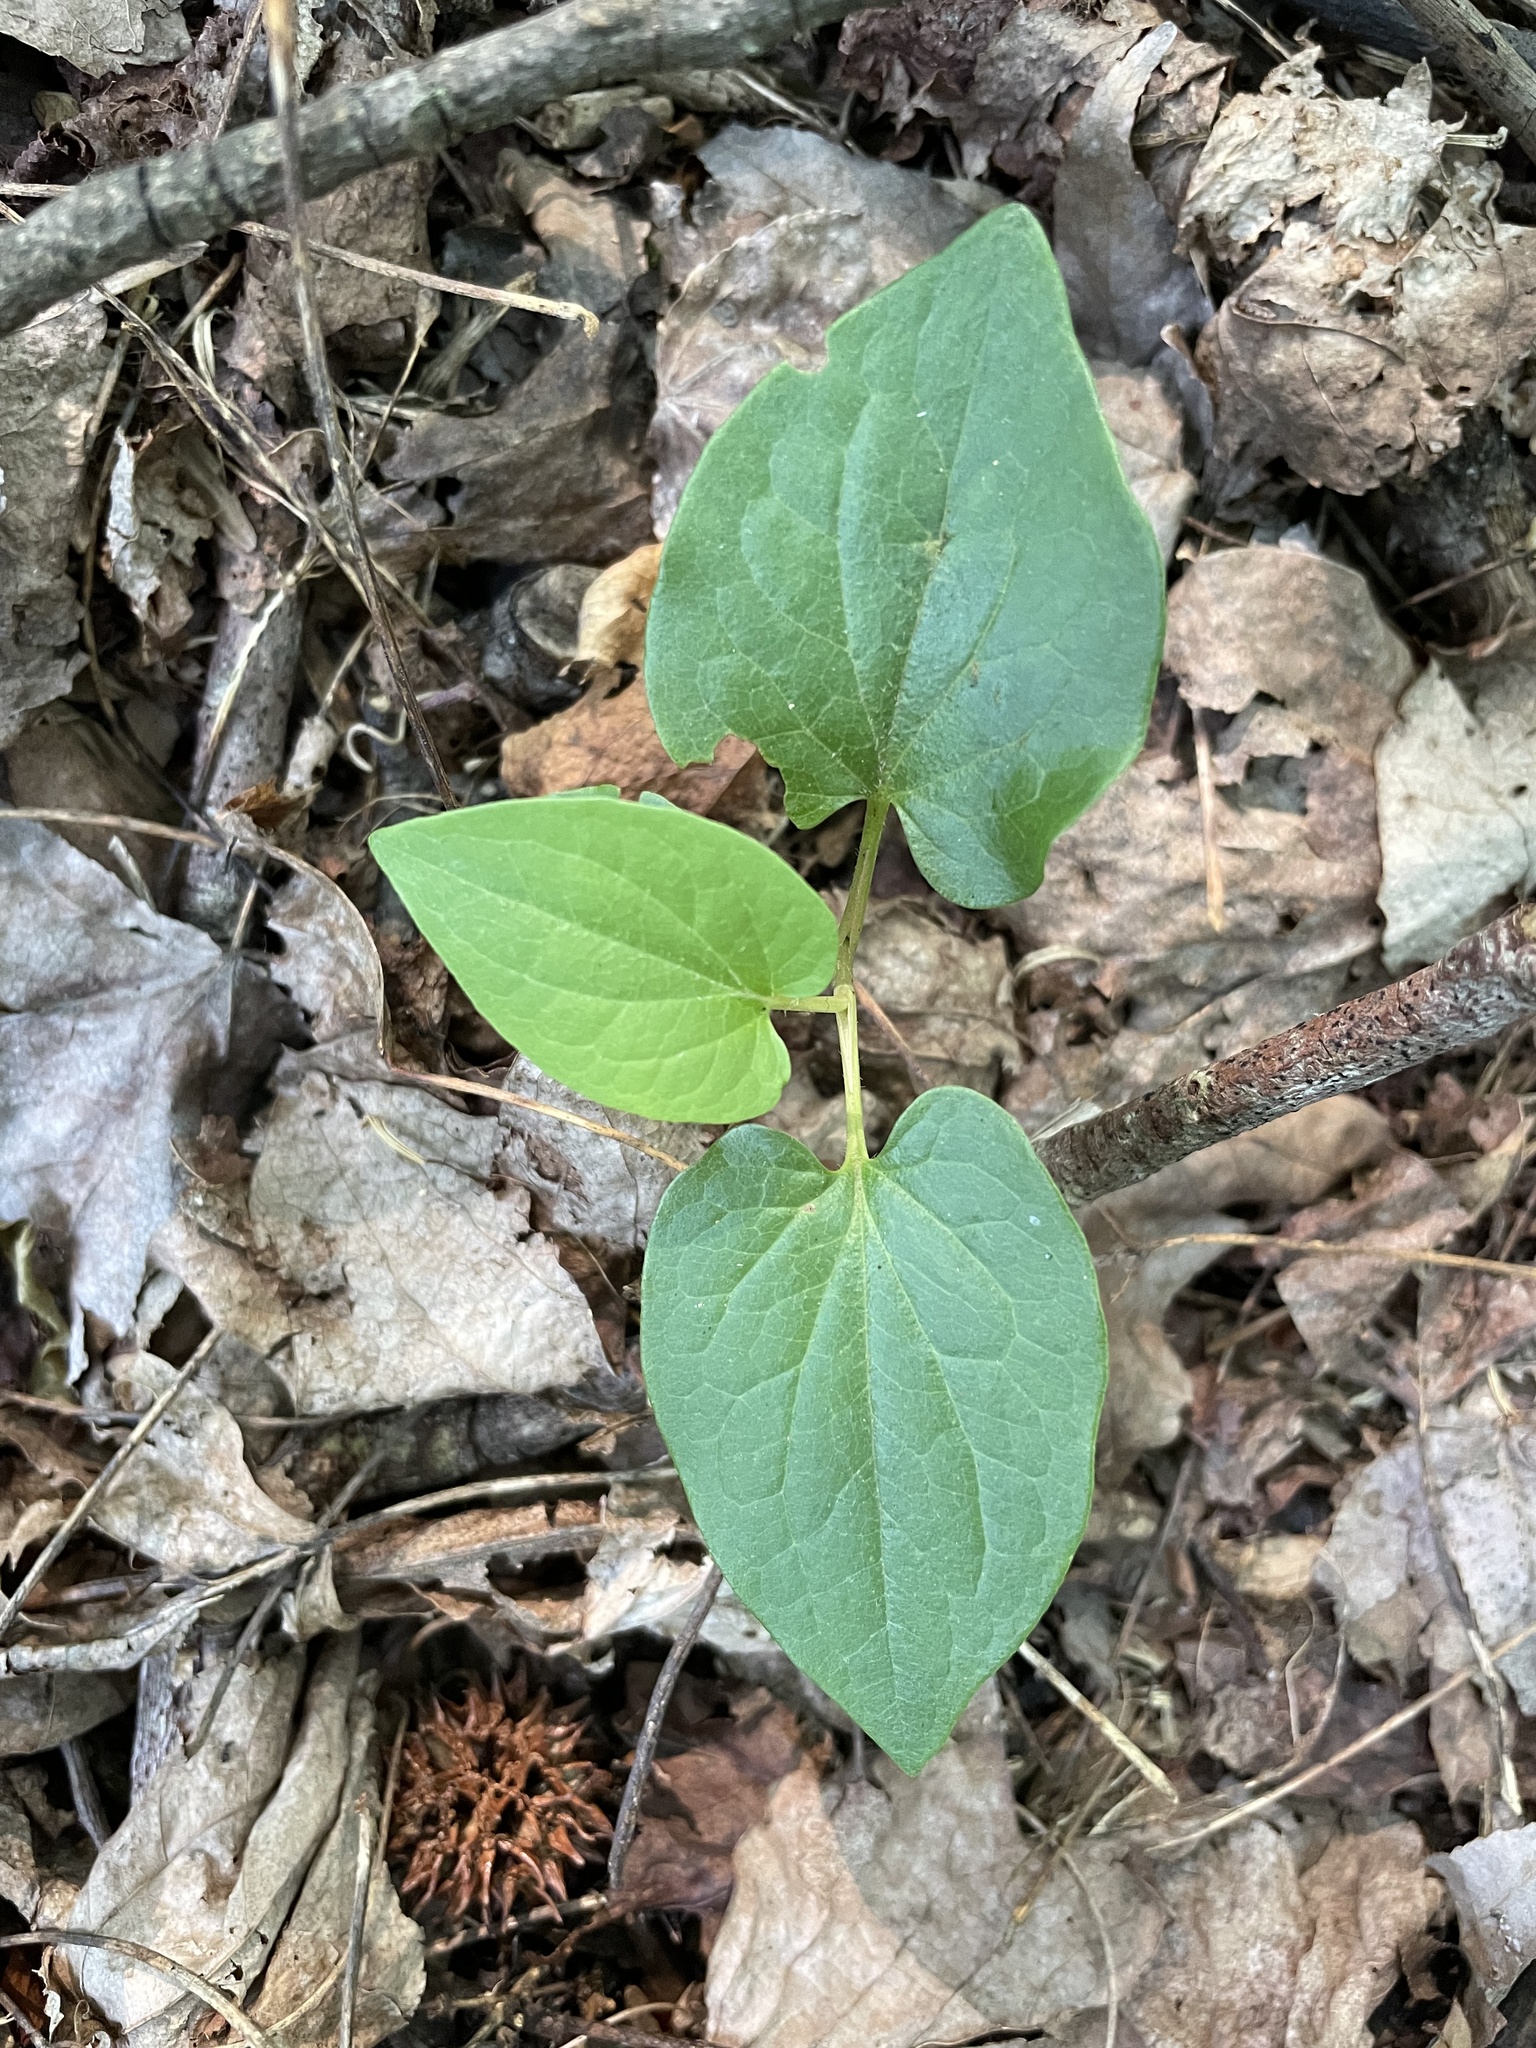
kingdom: Plantae
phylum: Tracheophyta
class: Magnoliopsida
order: Piperales
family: Saururaceae
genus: Saururus
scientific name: Saururus cernuus
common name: Lizard's-tail
